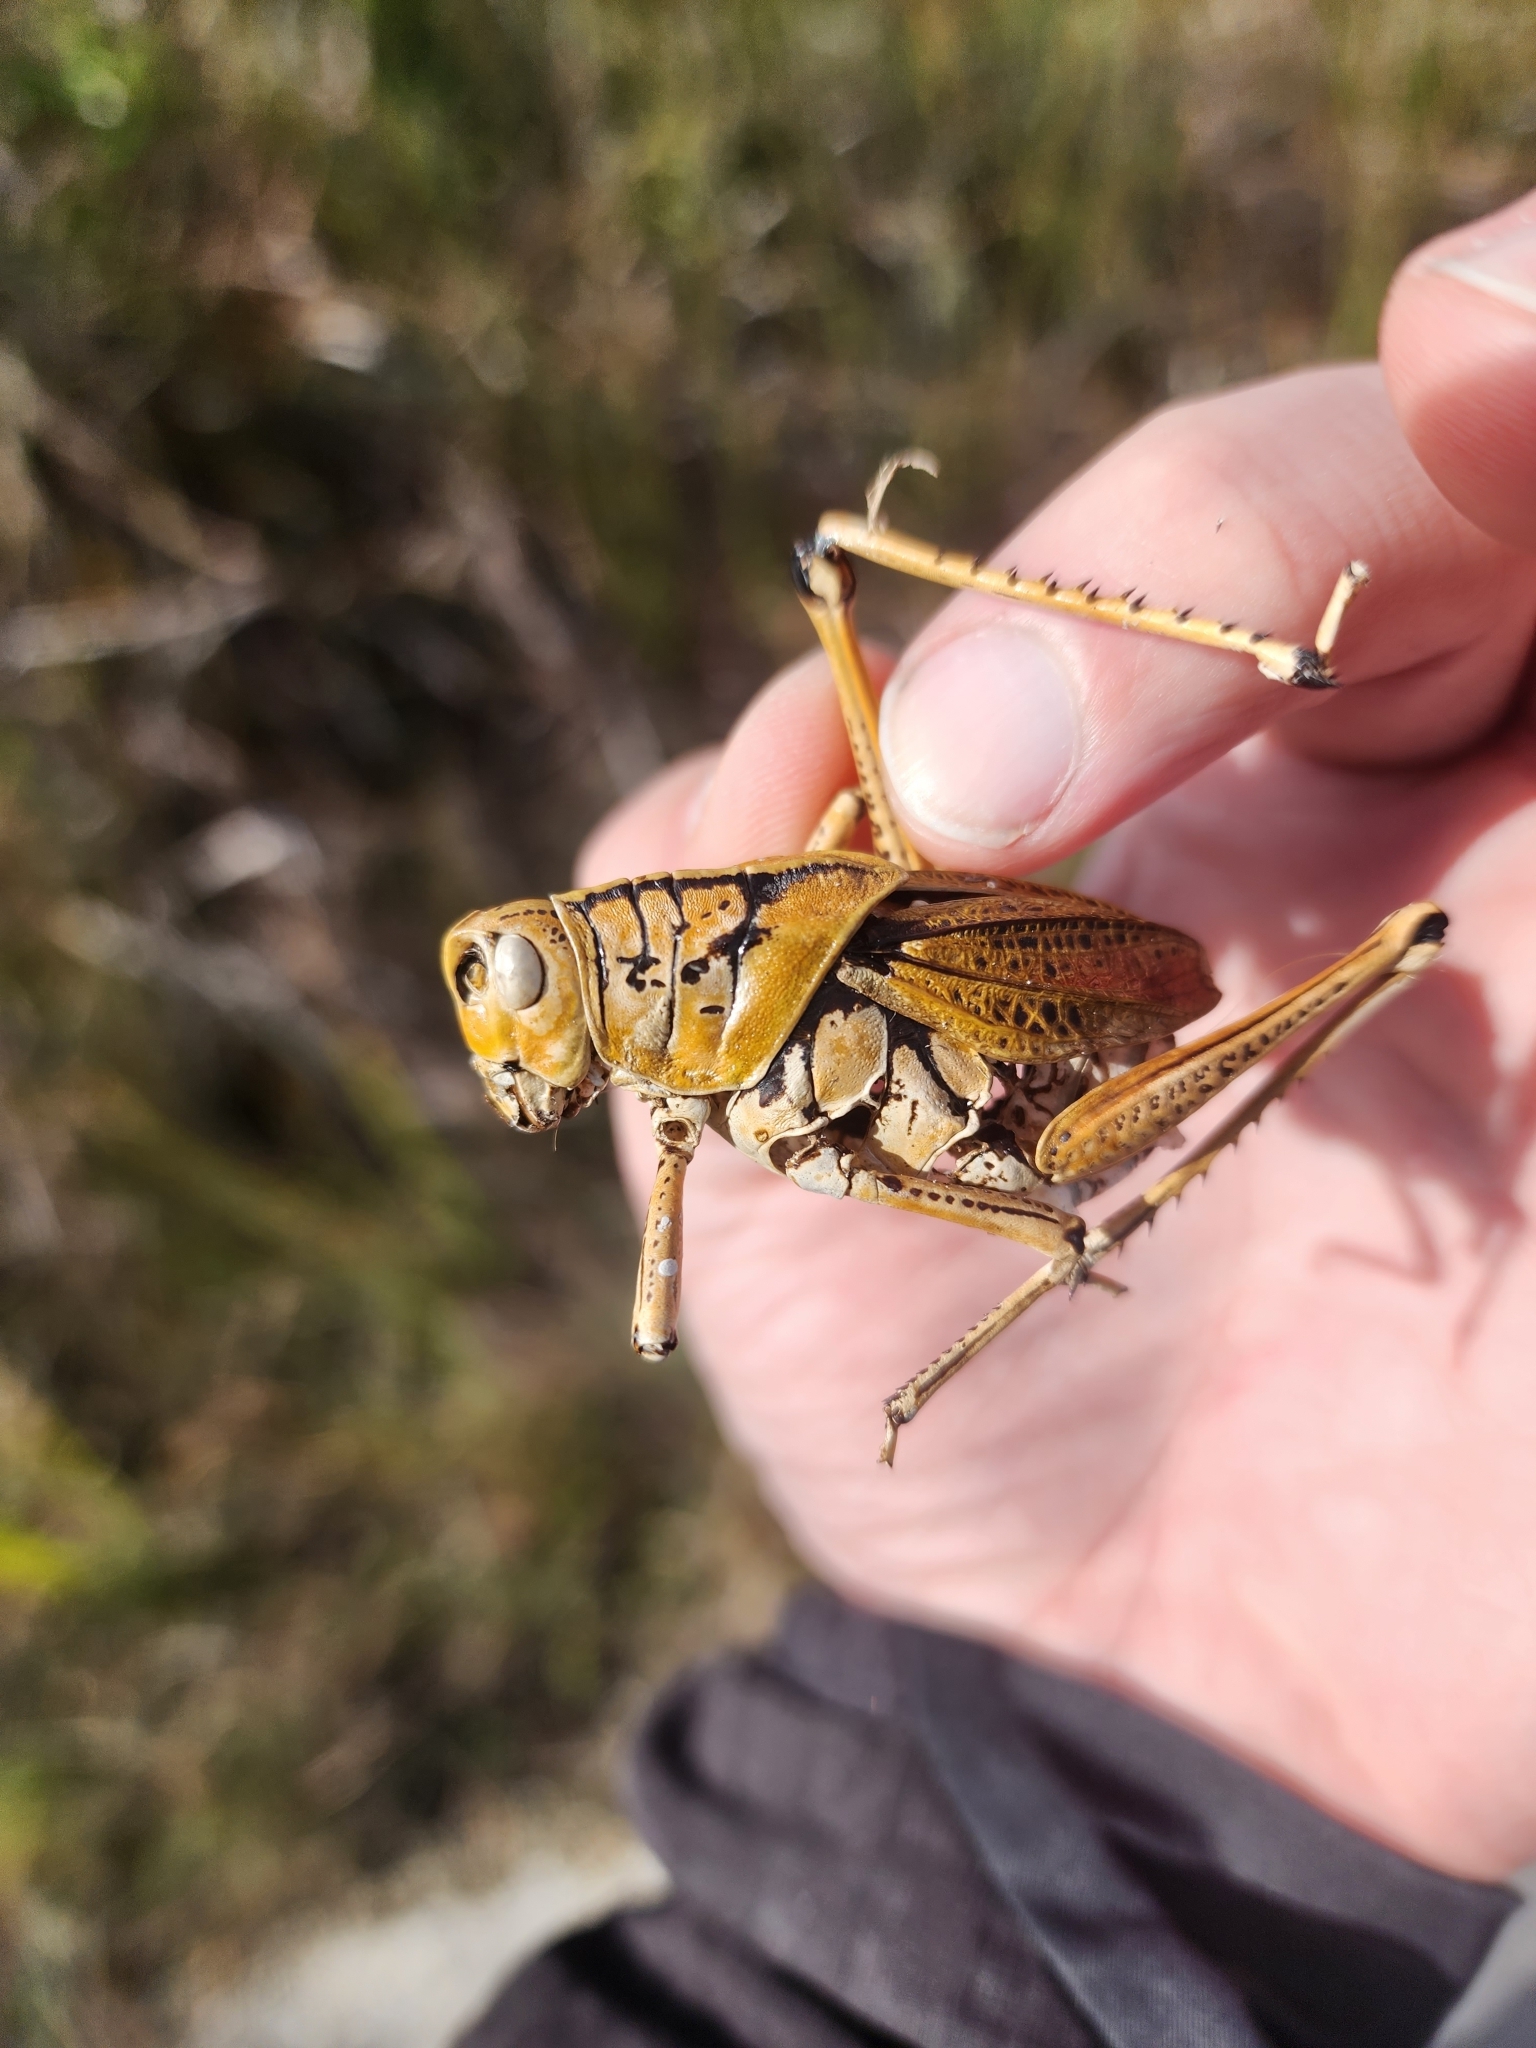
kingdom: Animalia
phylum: Arthropoda
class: Insecta
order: Orthoptera
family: Romaleidae
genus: Romalea
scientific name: Romalea microptera
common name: Eastern lubber grasshopper
